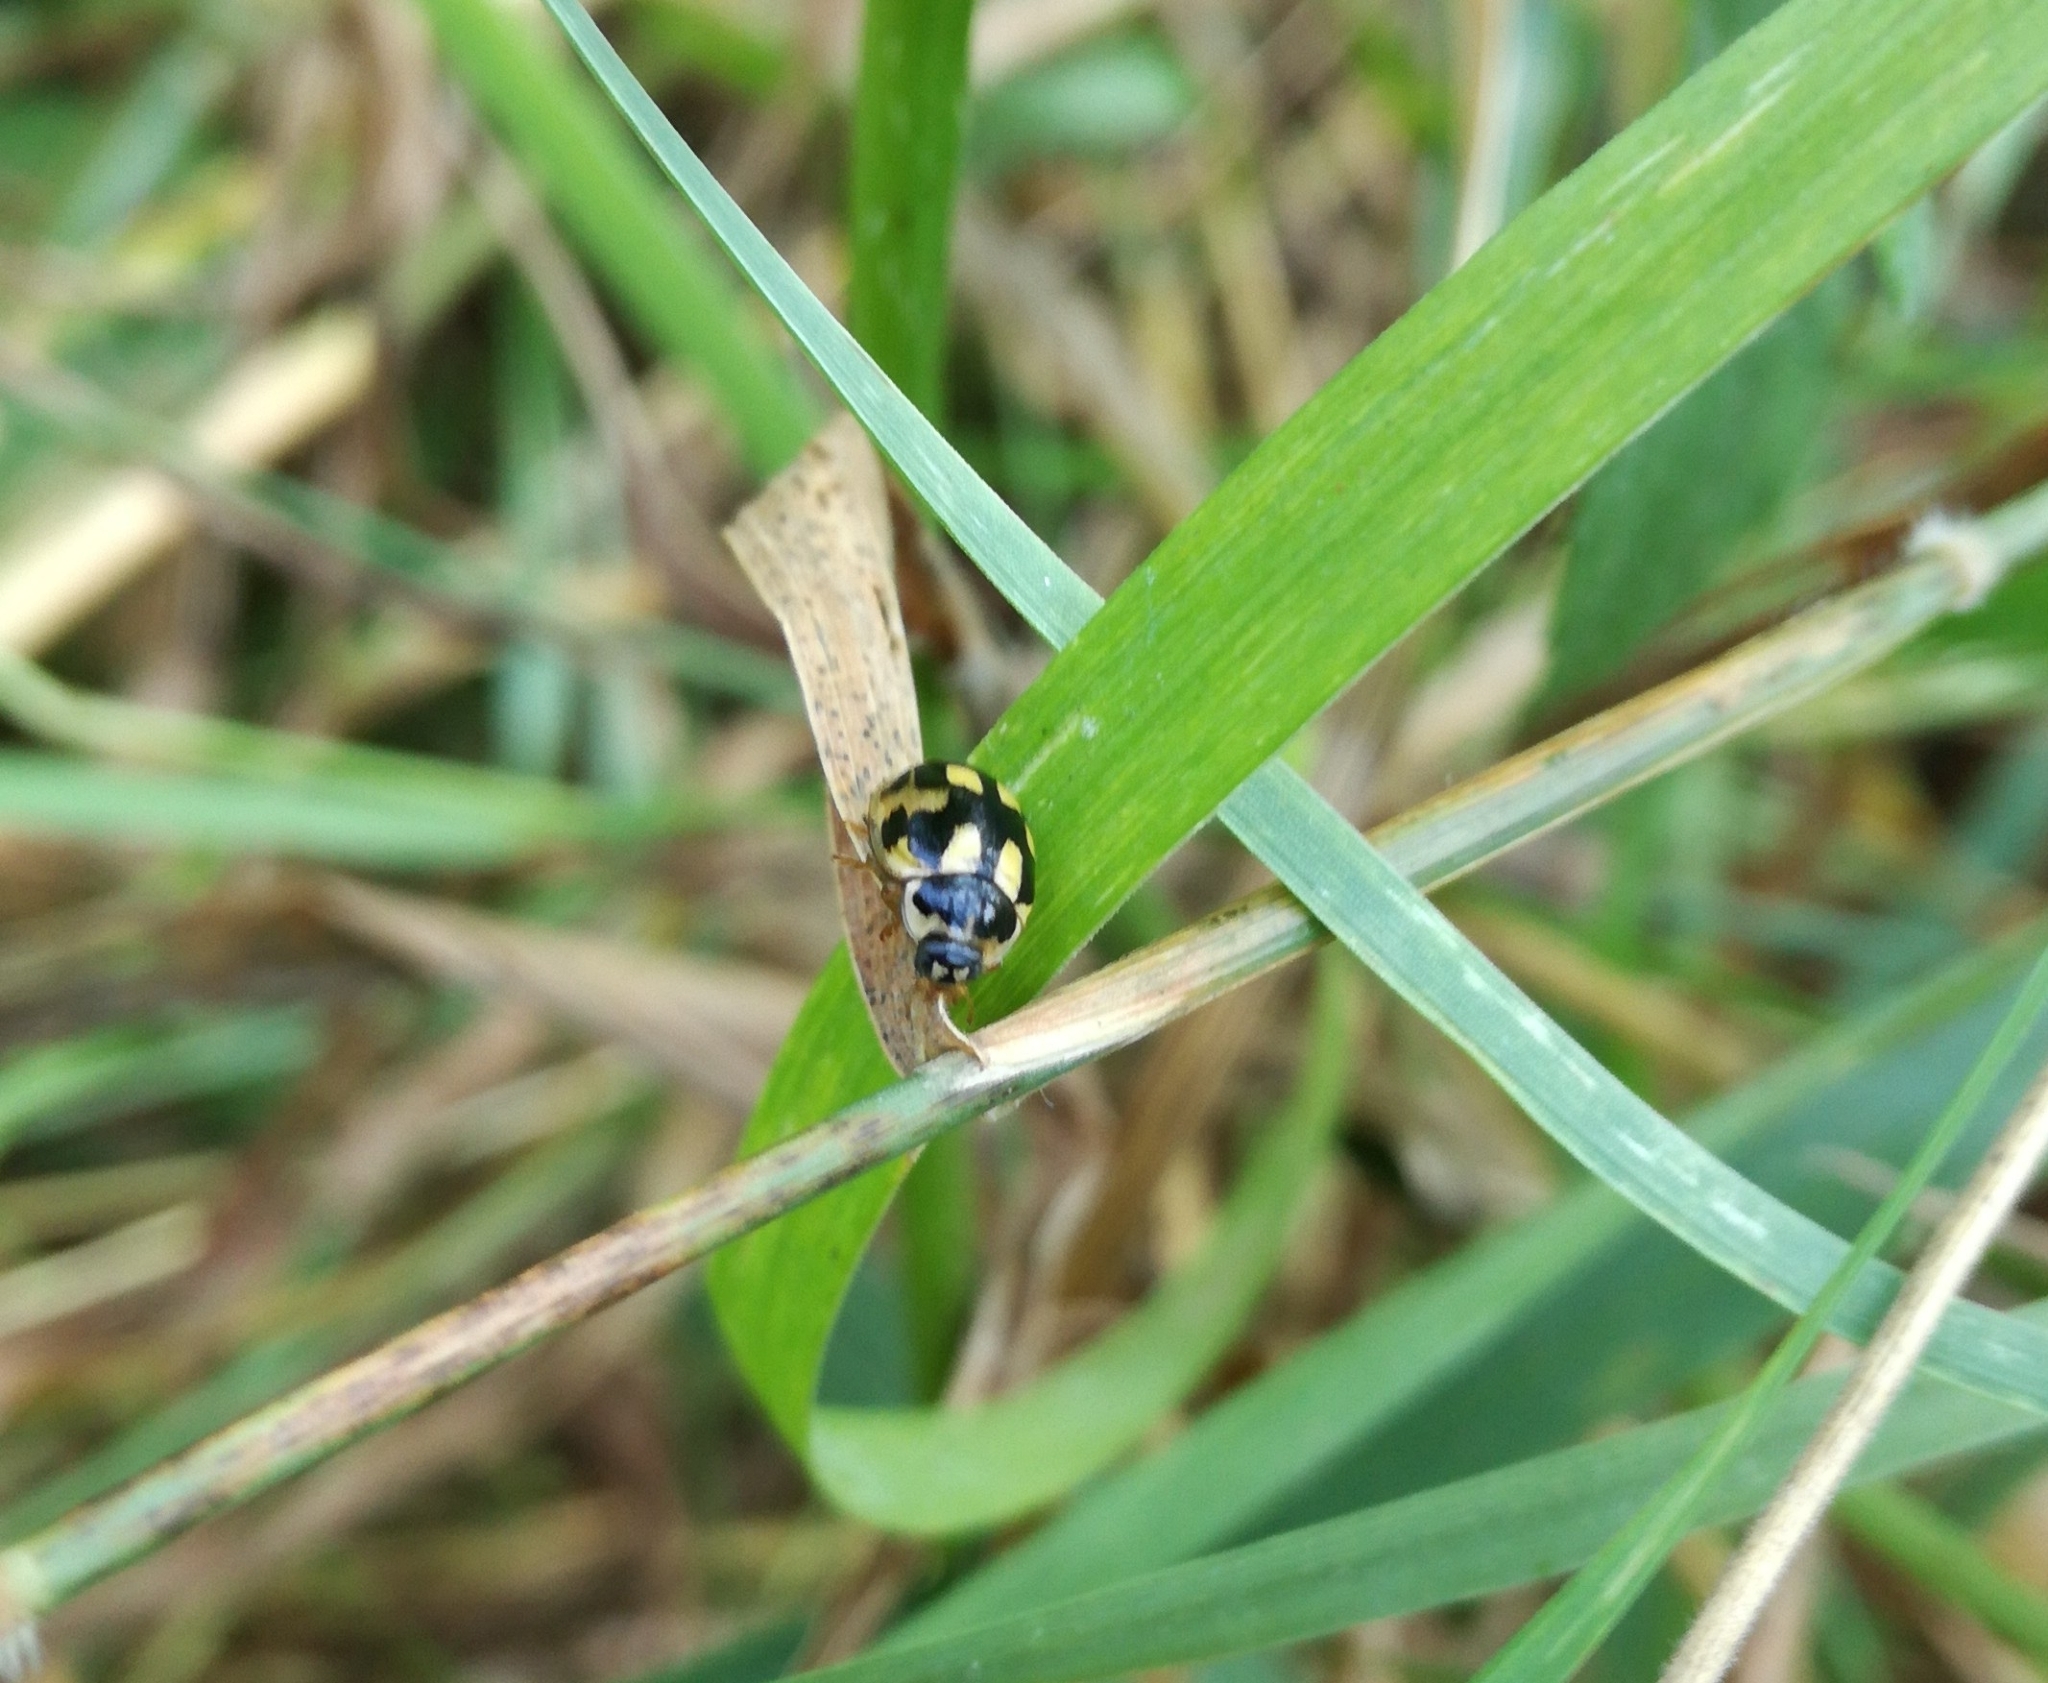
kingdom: Animalia
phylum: Arthropoda
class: Insecta
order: Coleoptera
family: Coccinellidae
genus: Propylaea
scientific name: Propylaea quatuordecimpunctata
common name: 14-spotted ladybird beetle
